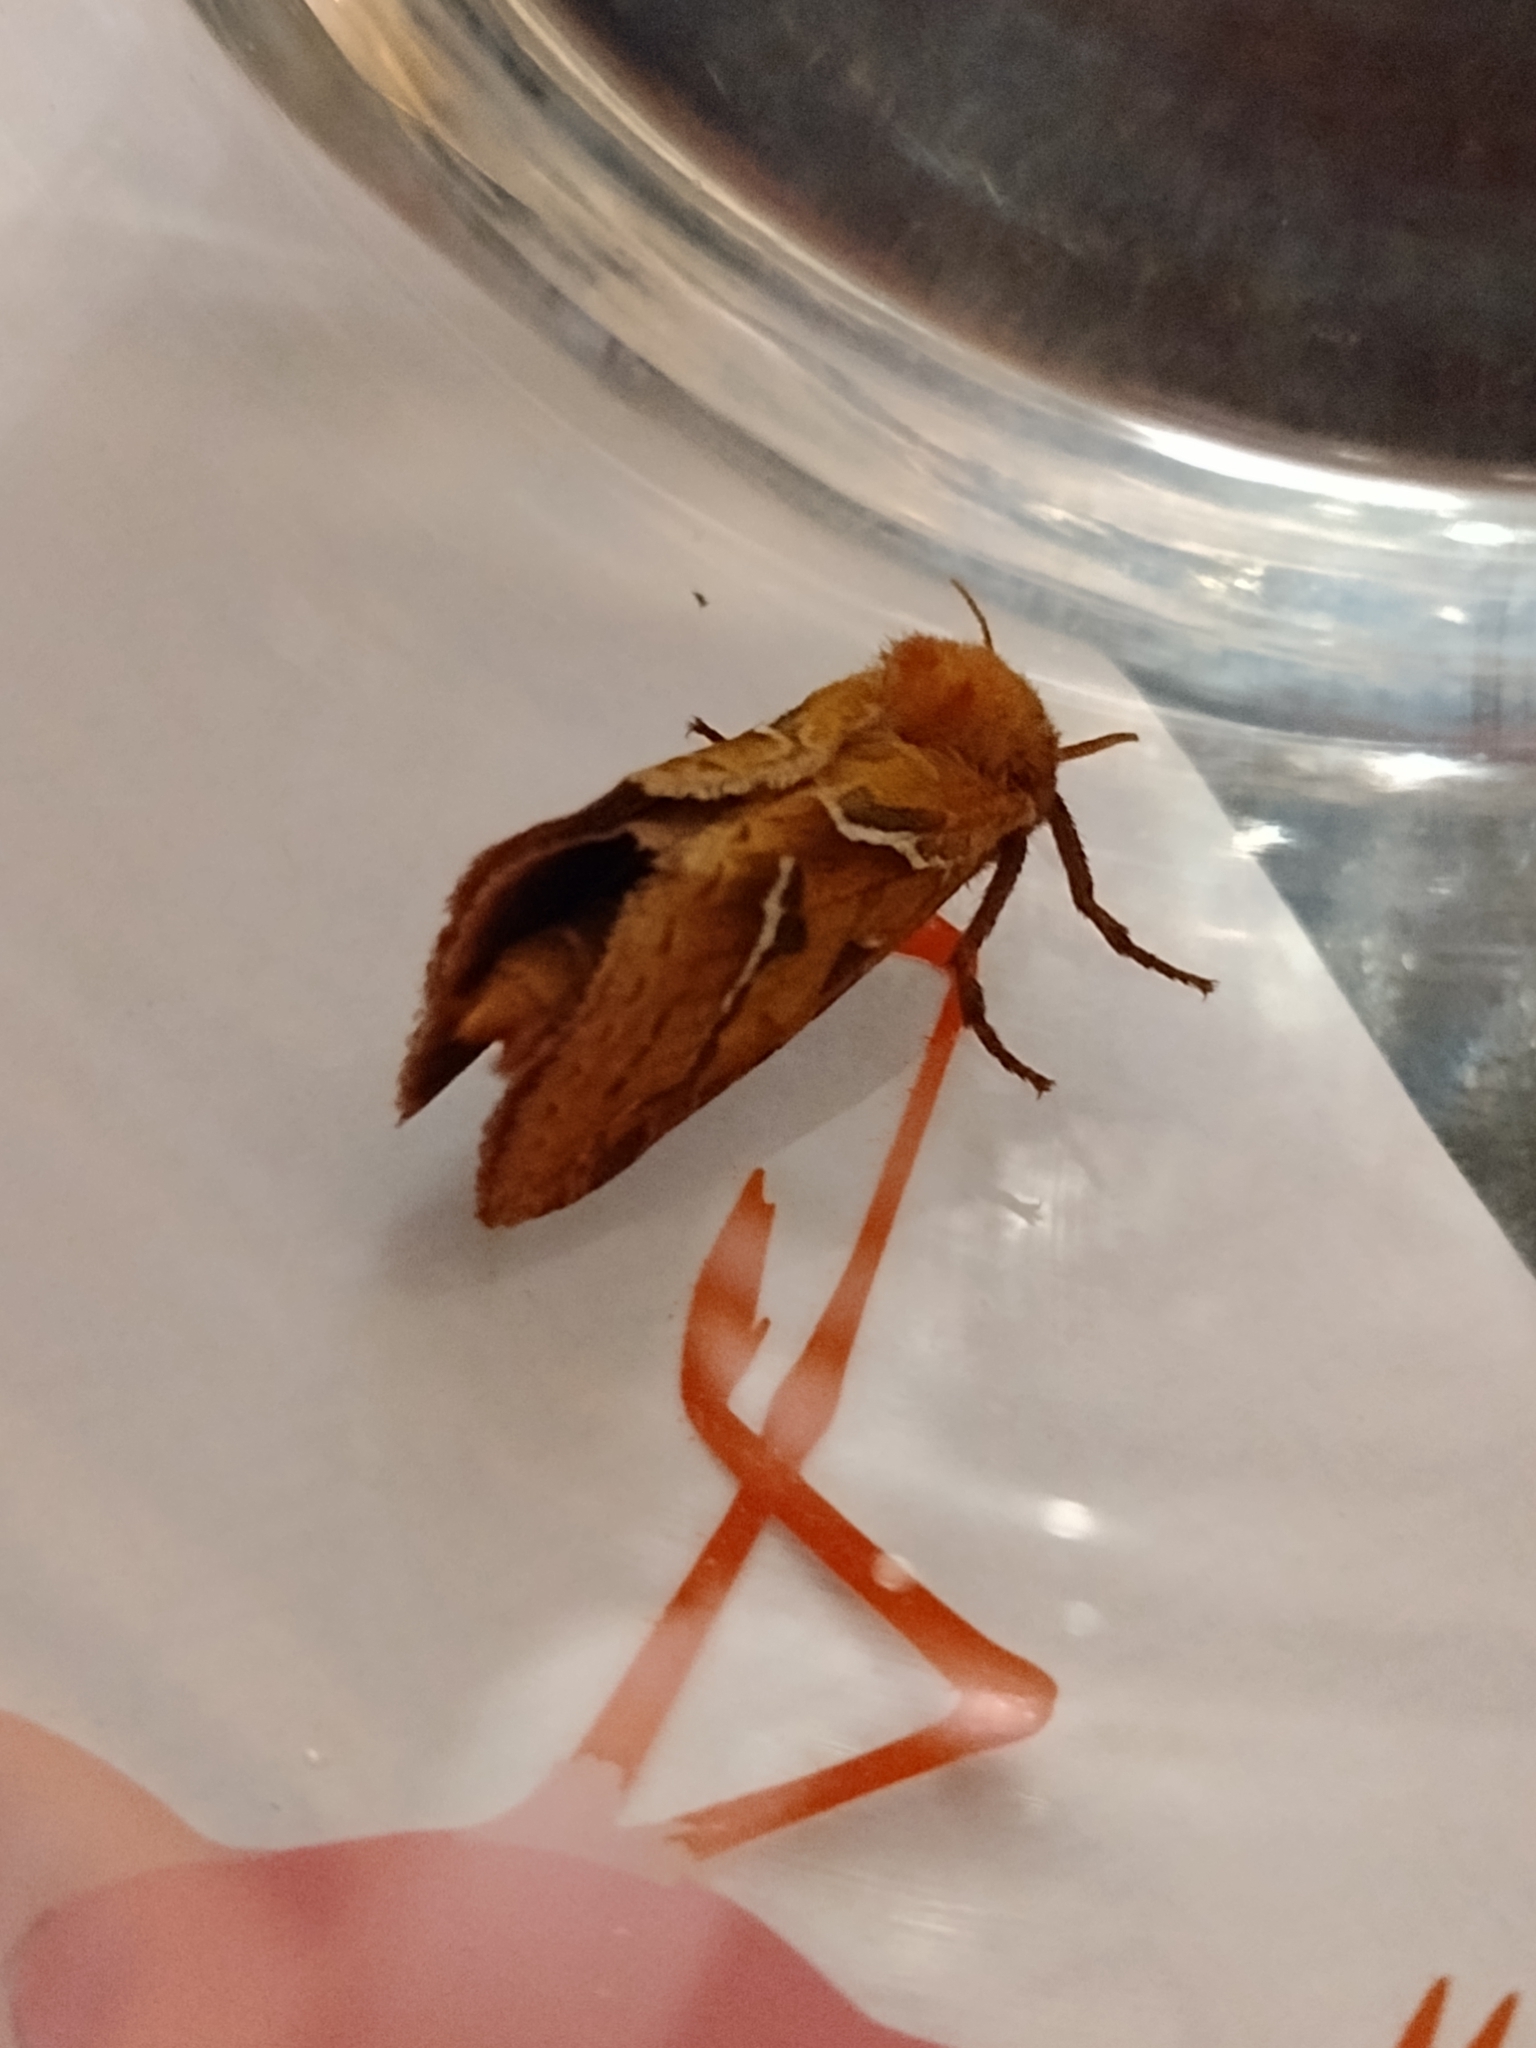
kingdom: Animalia
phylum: Arthropoda
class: Insecta
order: Lepidoptera
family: Hepialidae
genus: Triodia
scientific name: Triodia sylvina
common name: Orange swift
